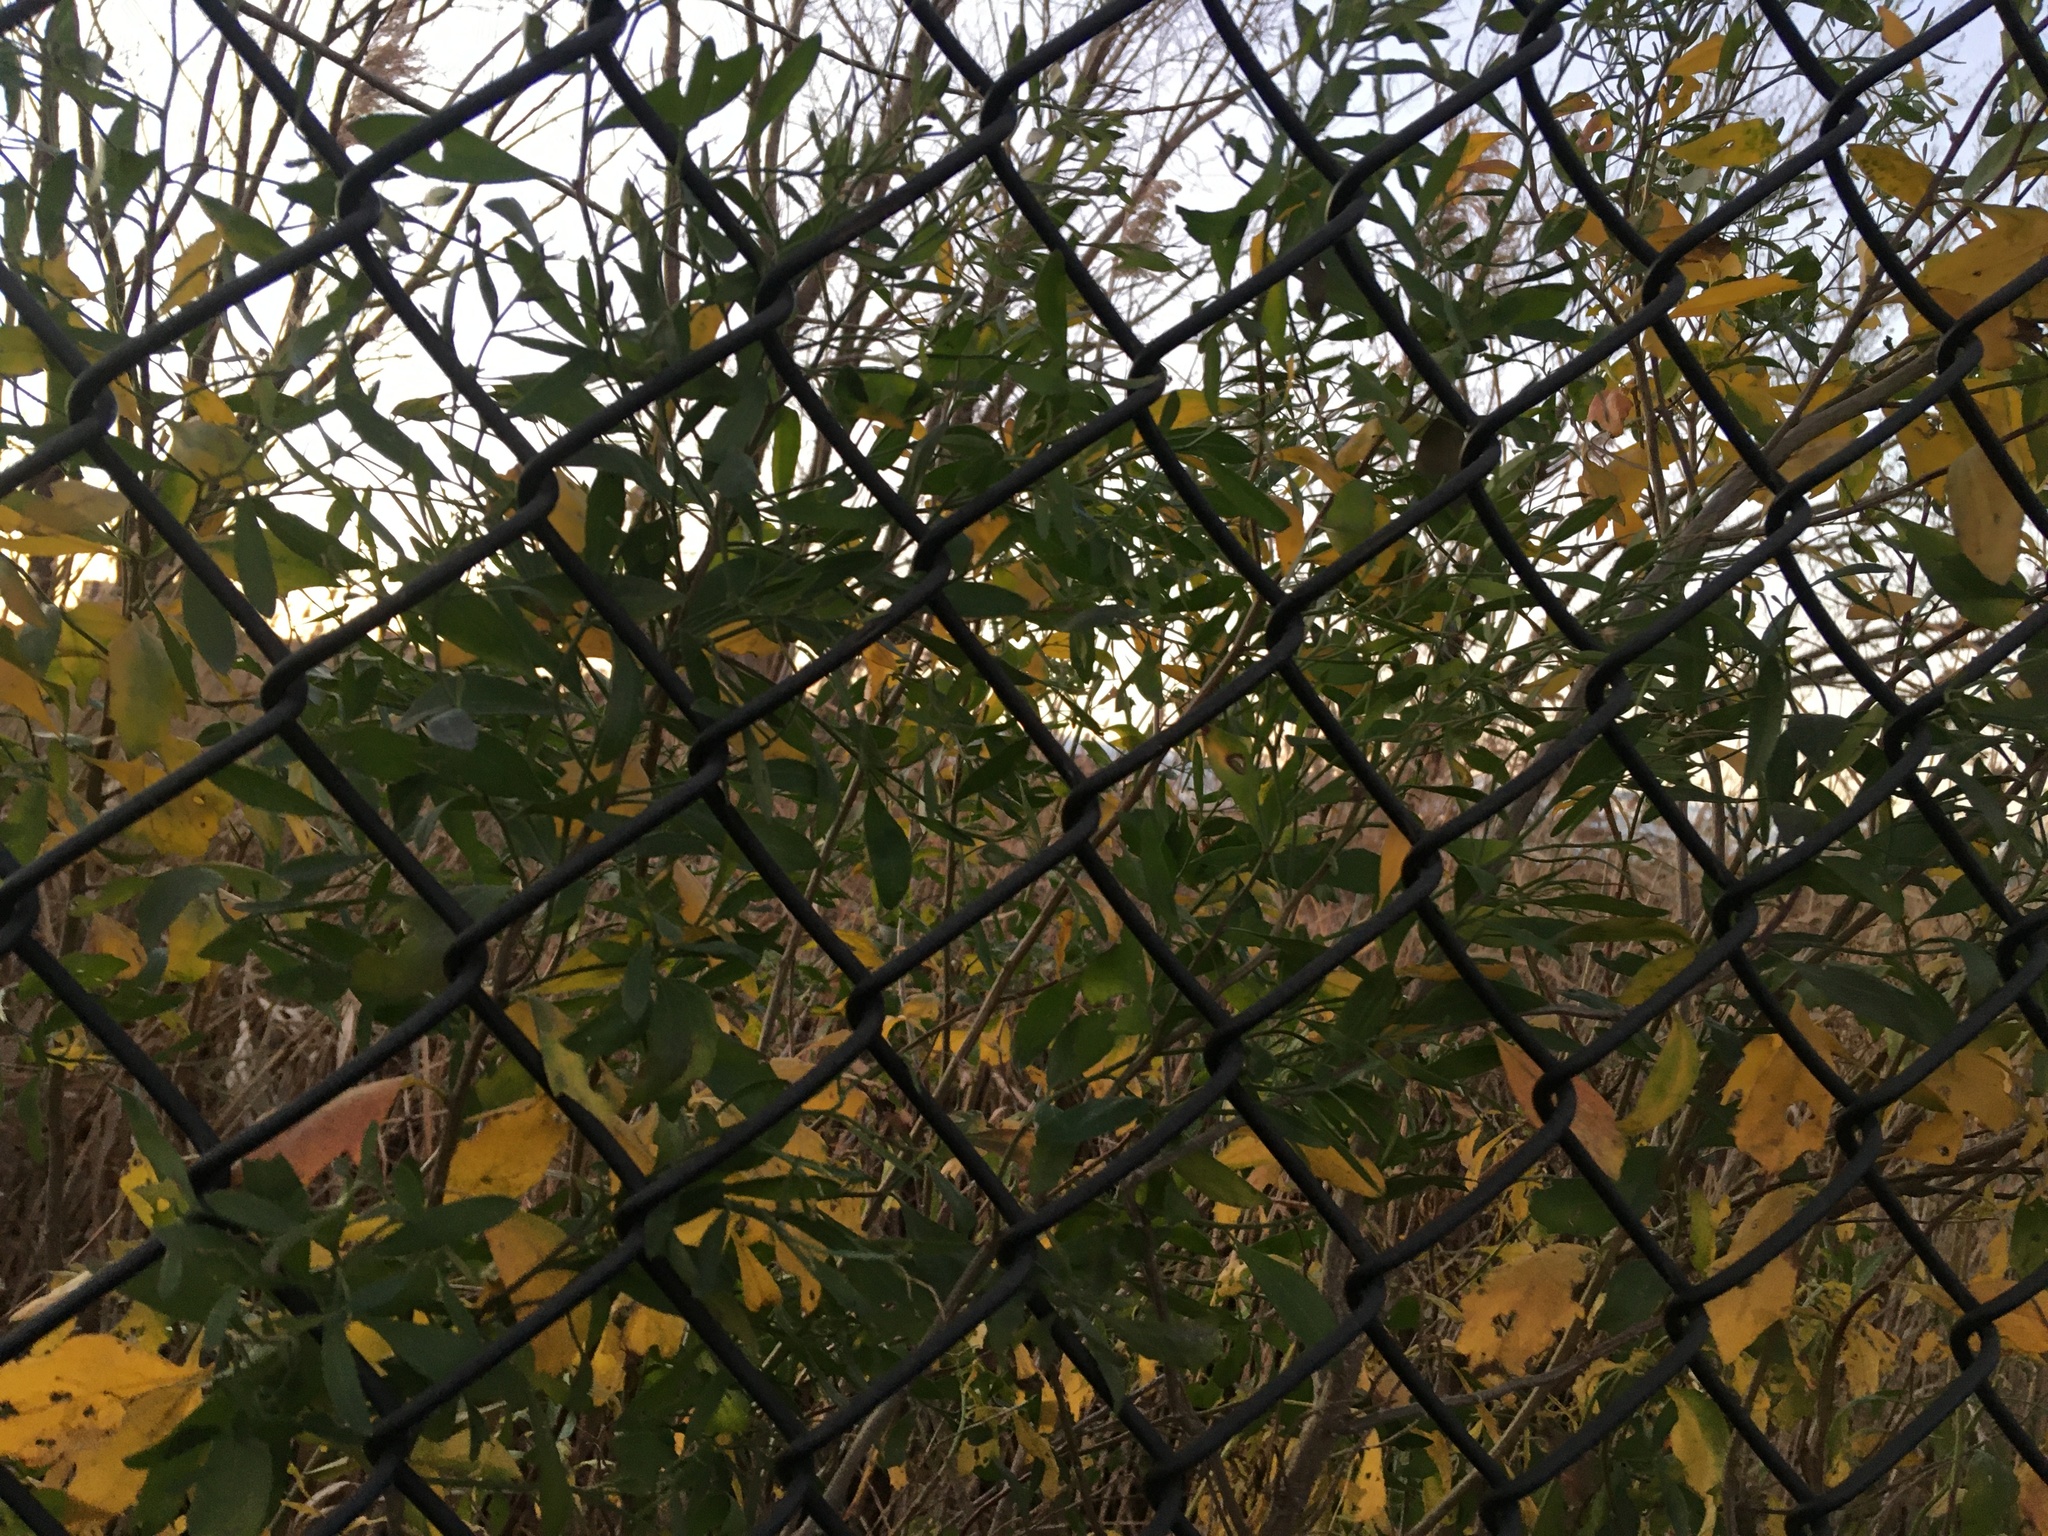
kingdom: Plantae
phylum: Tracheophyta
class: Magnoliopsida
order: Asterales
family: Asteraceae
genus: Baccharis
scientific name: Baccharis halimifolia
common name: Eastern baccharis
